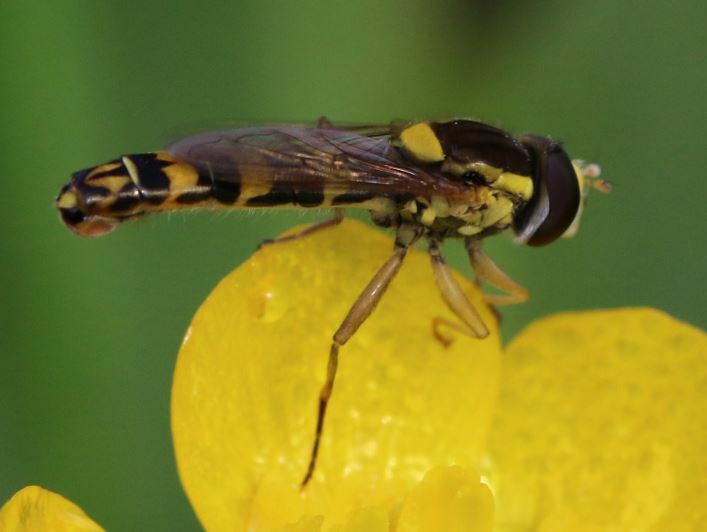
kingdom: Animalia
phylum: Arthropoda
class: Insecta
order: Diptera
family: Syrphidae
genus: Sphaerophoria
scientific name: Sphaerophoria scripta
